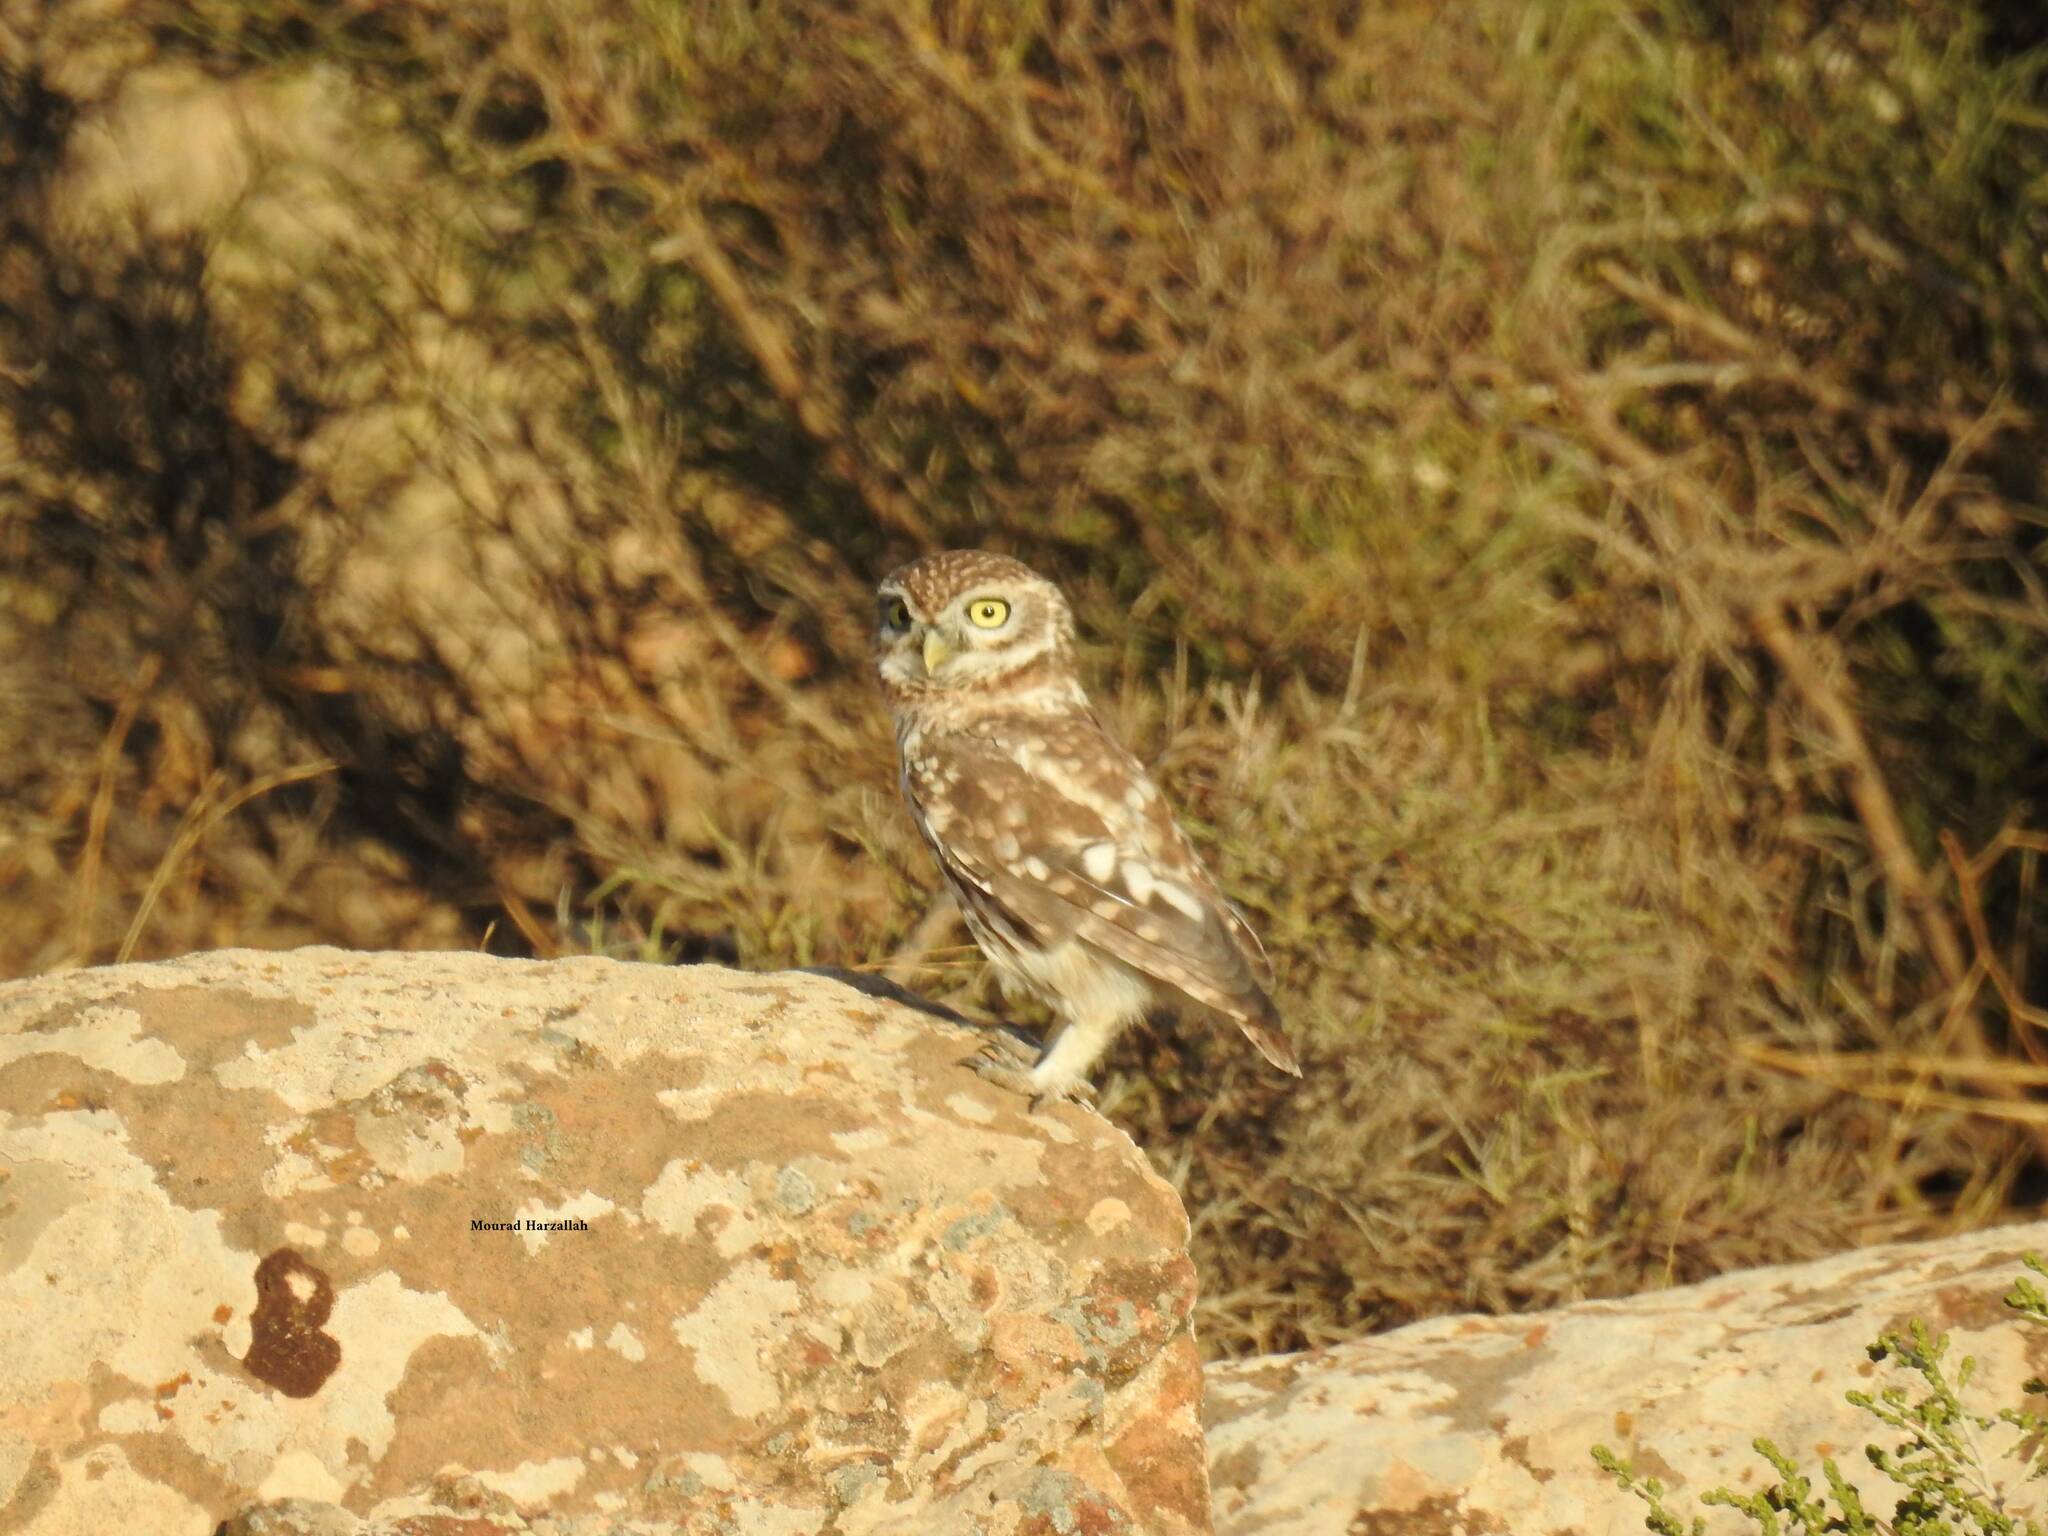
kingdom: Animalia
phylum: Chordata
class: Aves
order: Strigiformes
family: Strigidae
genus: Athene
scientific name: Athene noctua
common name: Little owl
